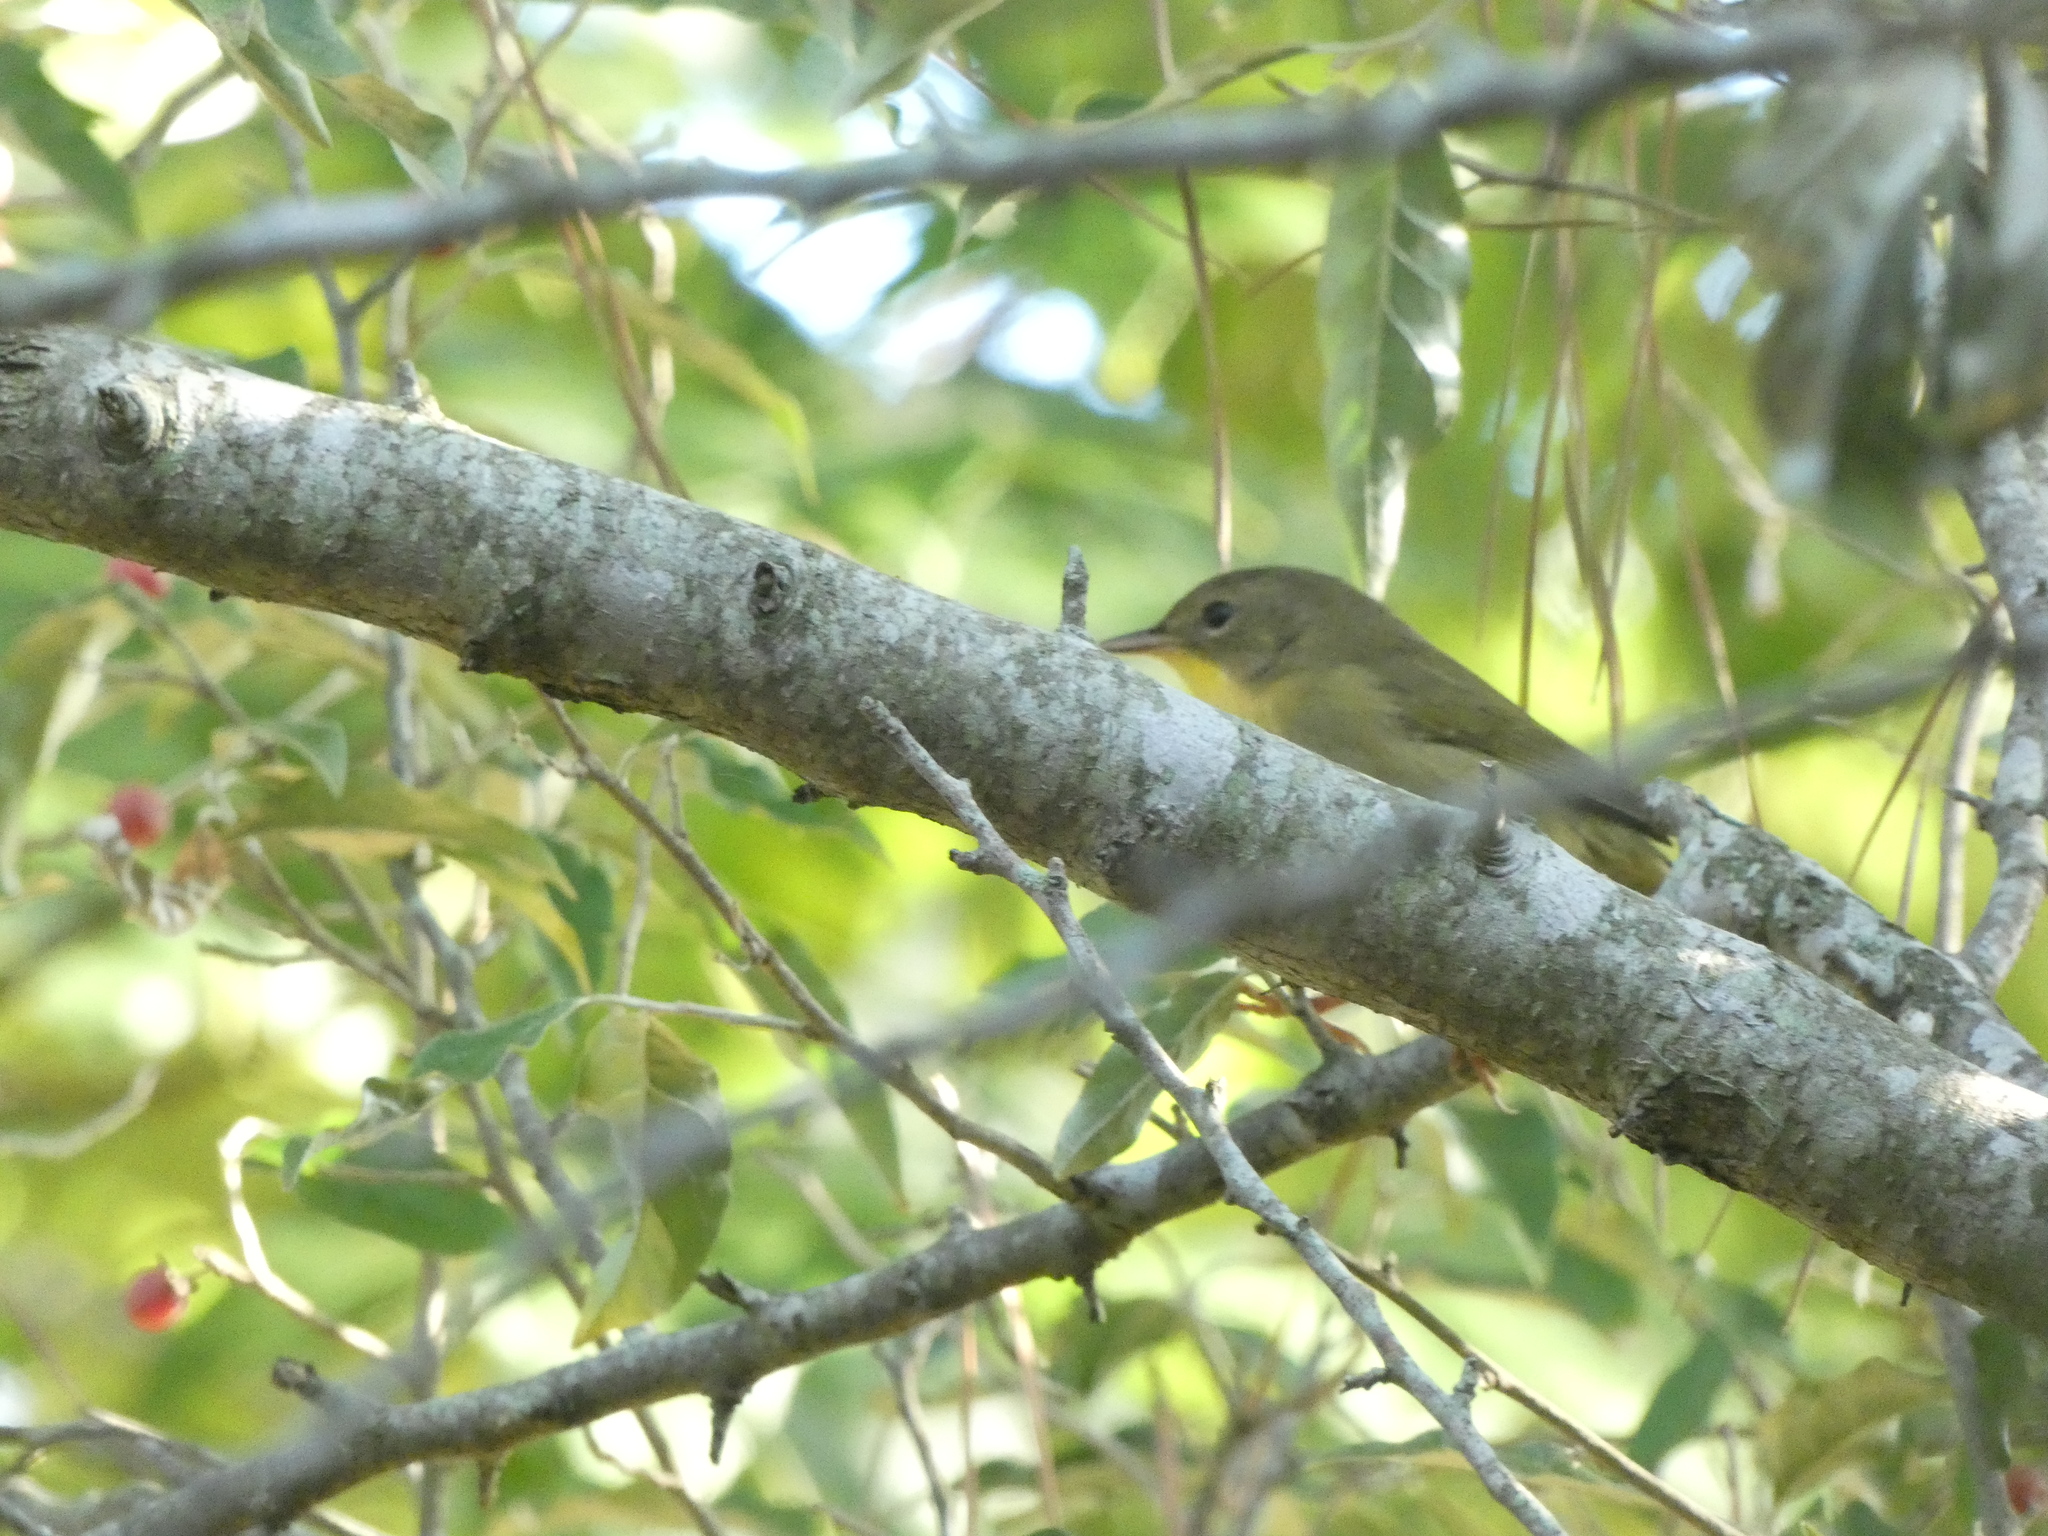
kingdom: Animalia
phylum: Chordata
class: Aves
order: Passeriformes
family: Parulidae
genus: Geothlypis
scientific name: Geothlypis trichas
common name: Common yellowthroat
